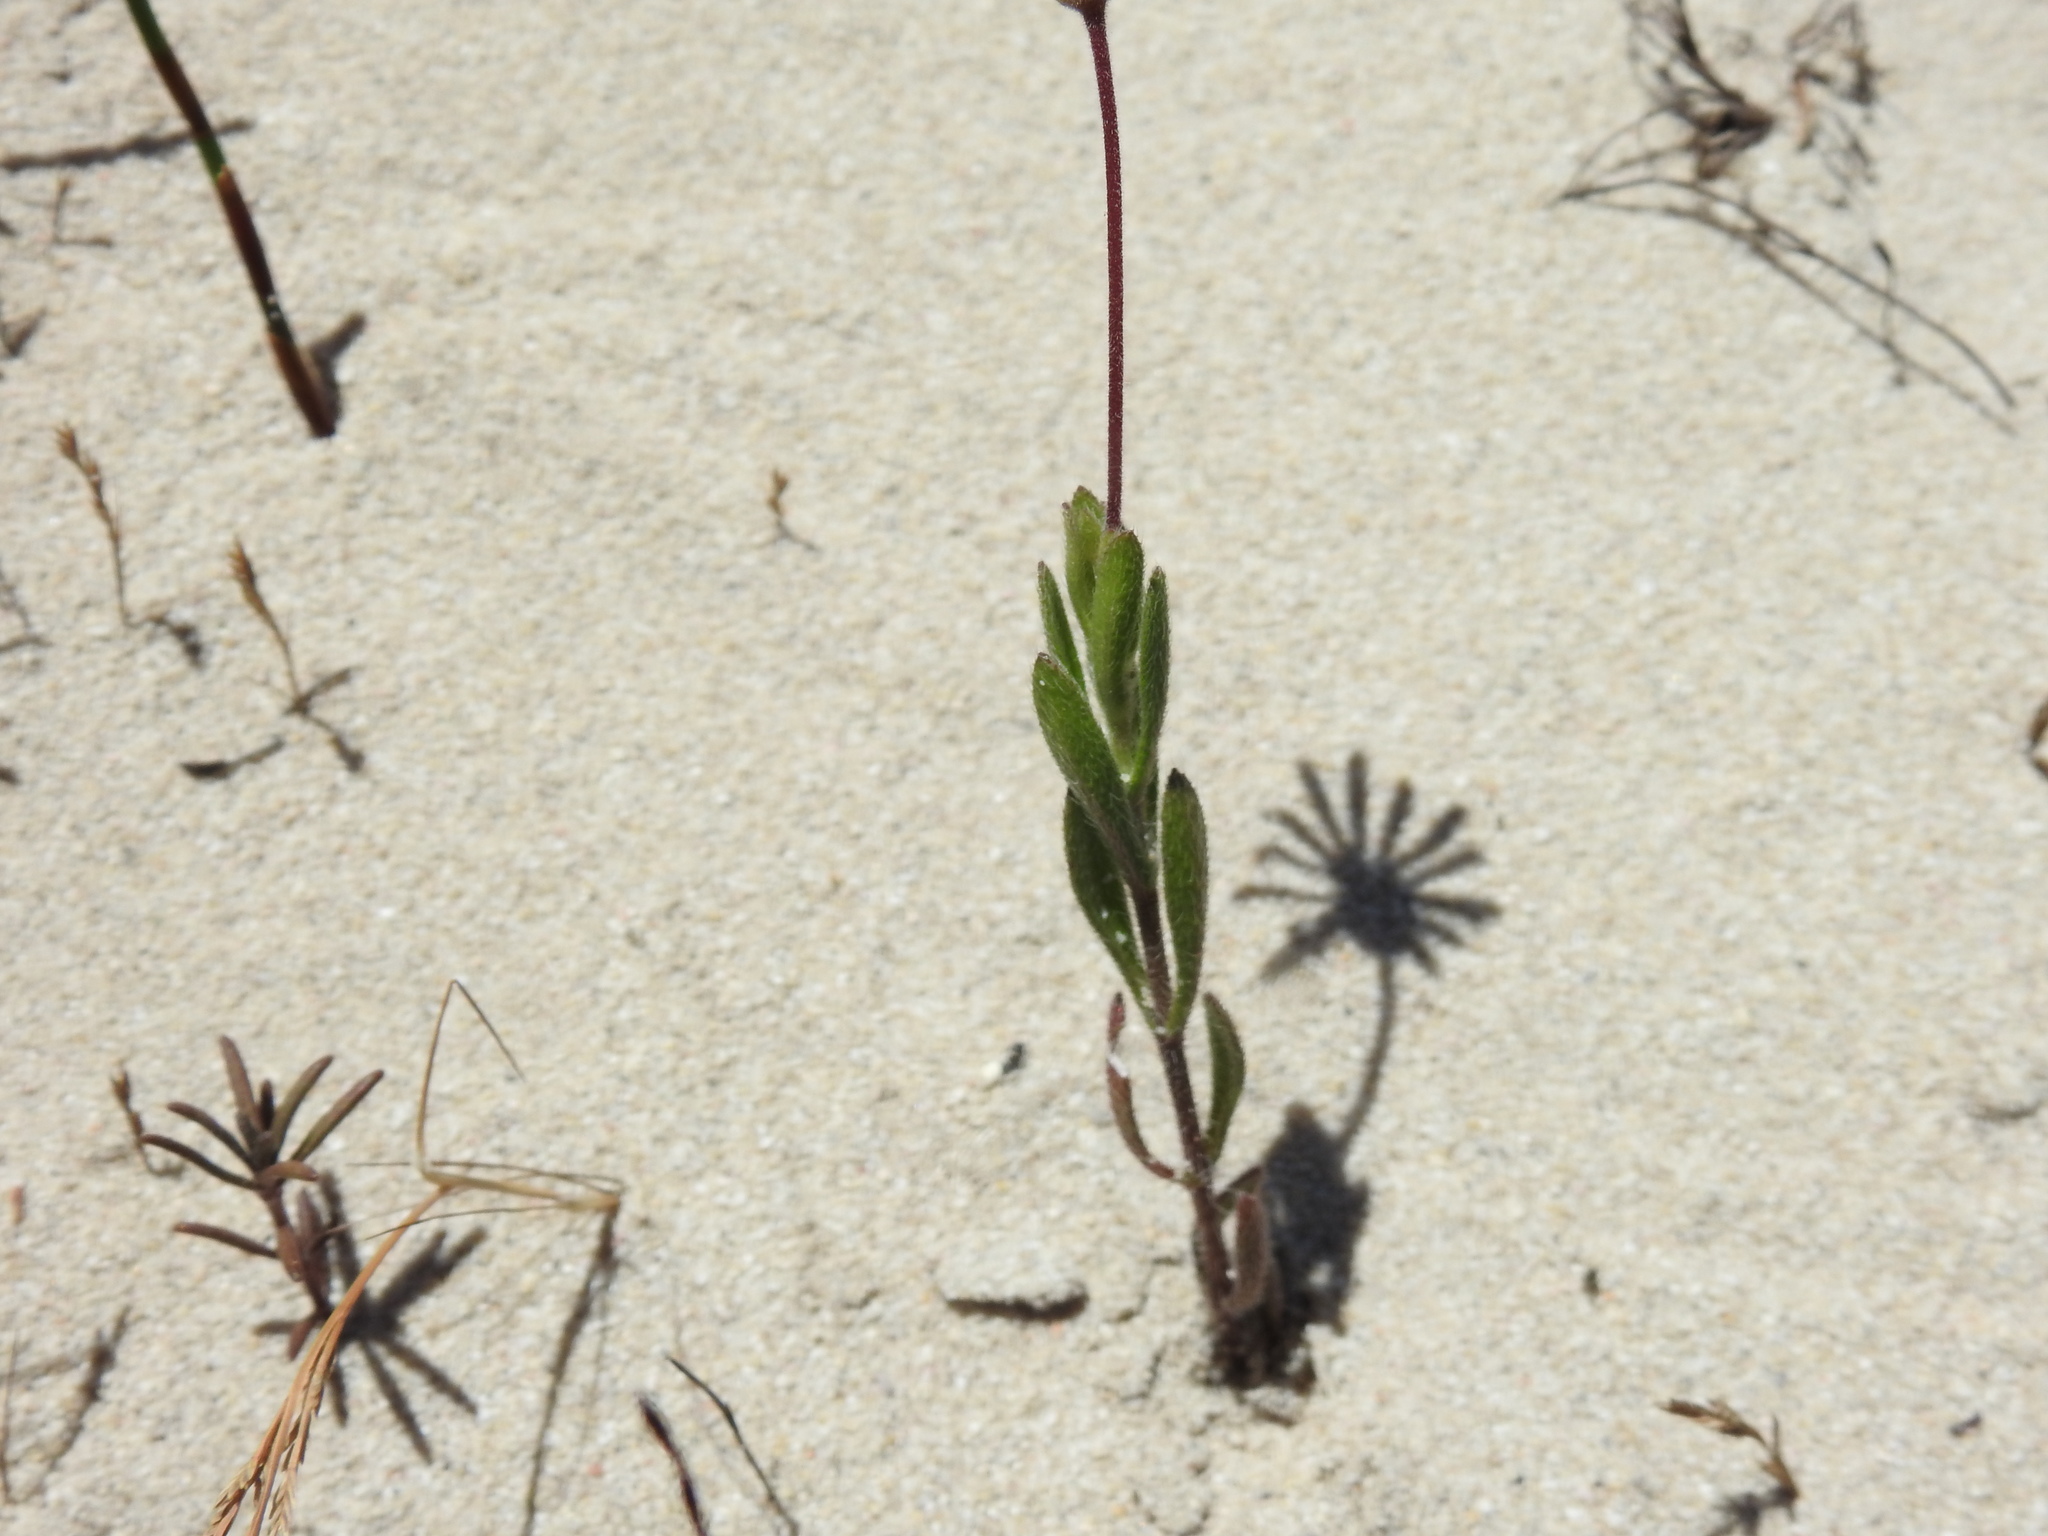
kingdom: Plantae
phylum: Tracheophyta
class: Magnoliopsida
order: Asterales
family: Asteraceae
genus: Felicia
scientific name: Felicia amoena
